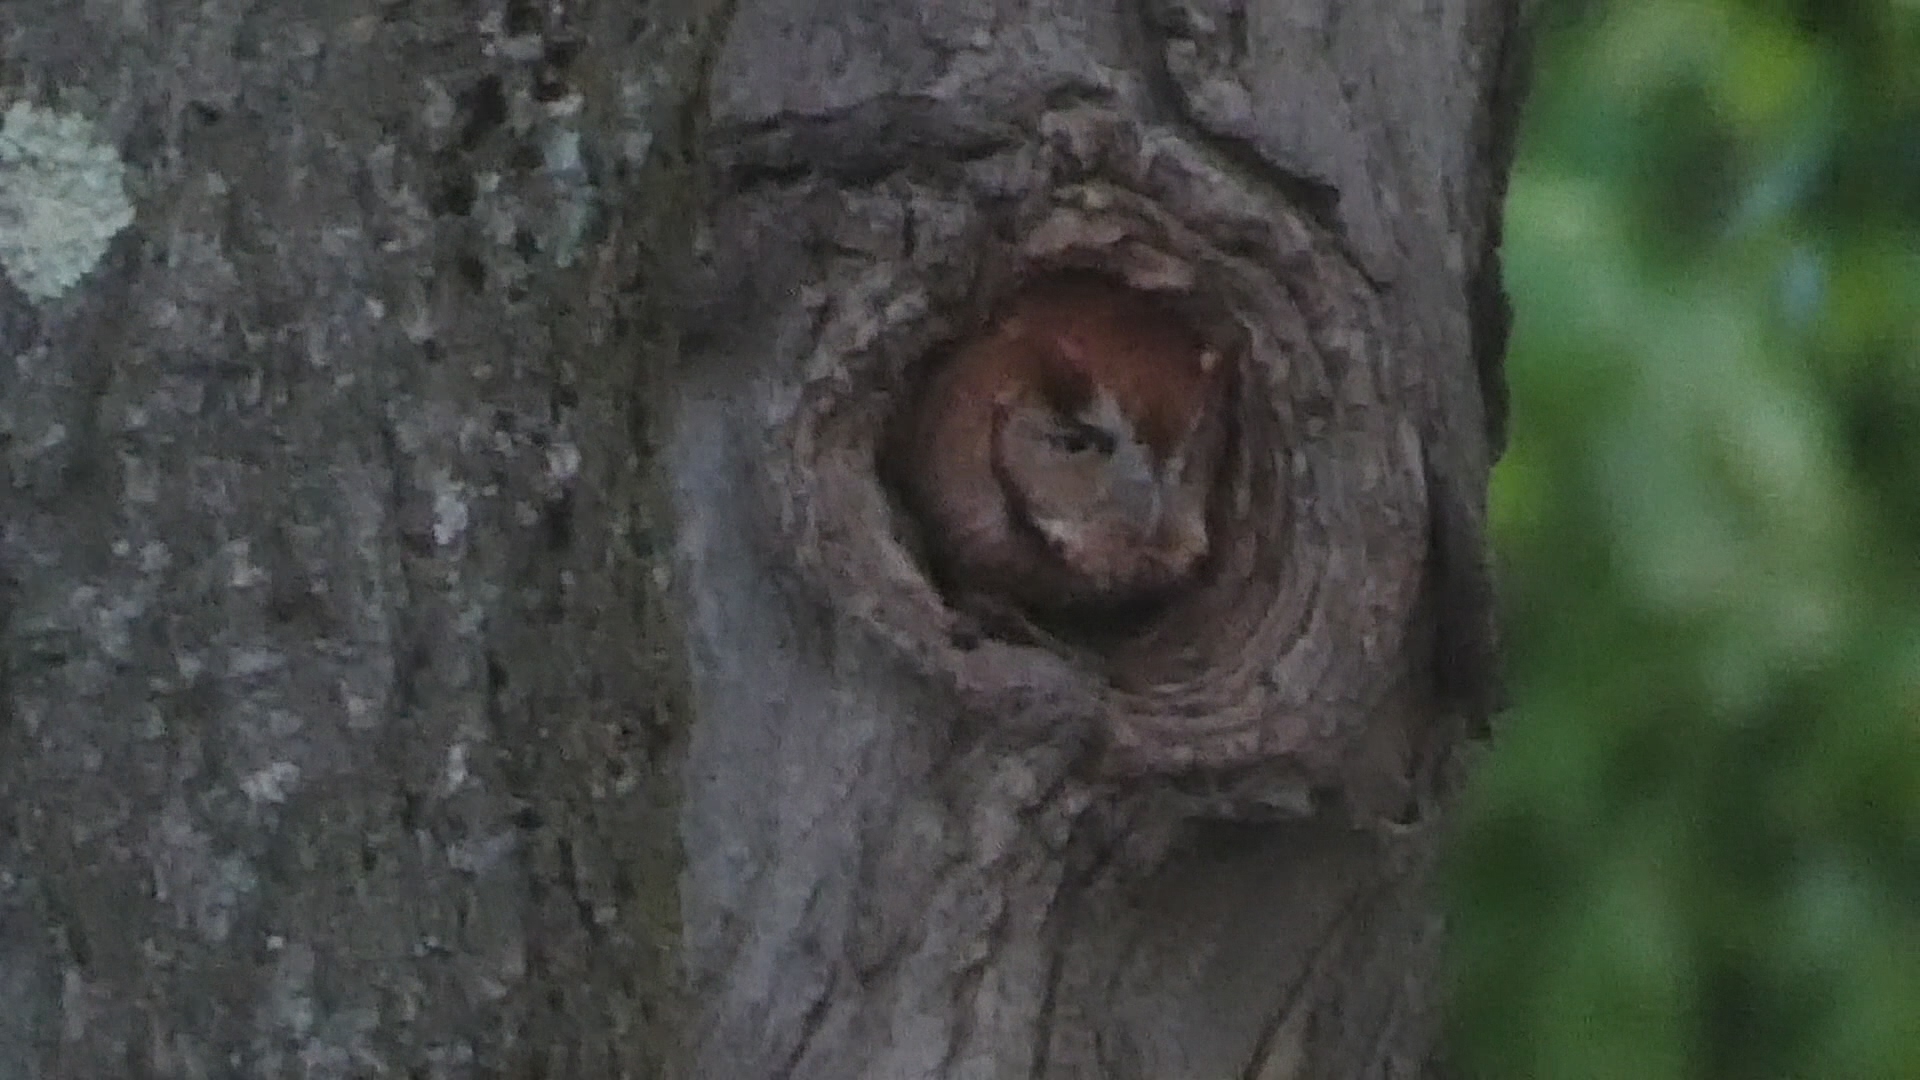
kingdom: Animalia
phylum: Chordata
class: Aves
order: Strigiformes
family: Strigidae
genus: Megascops
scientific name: Megascops asio
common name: Eastern screech-owl
